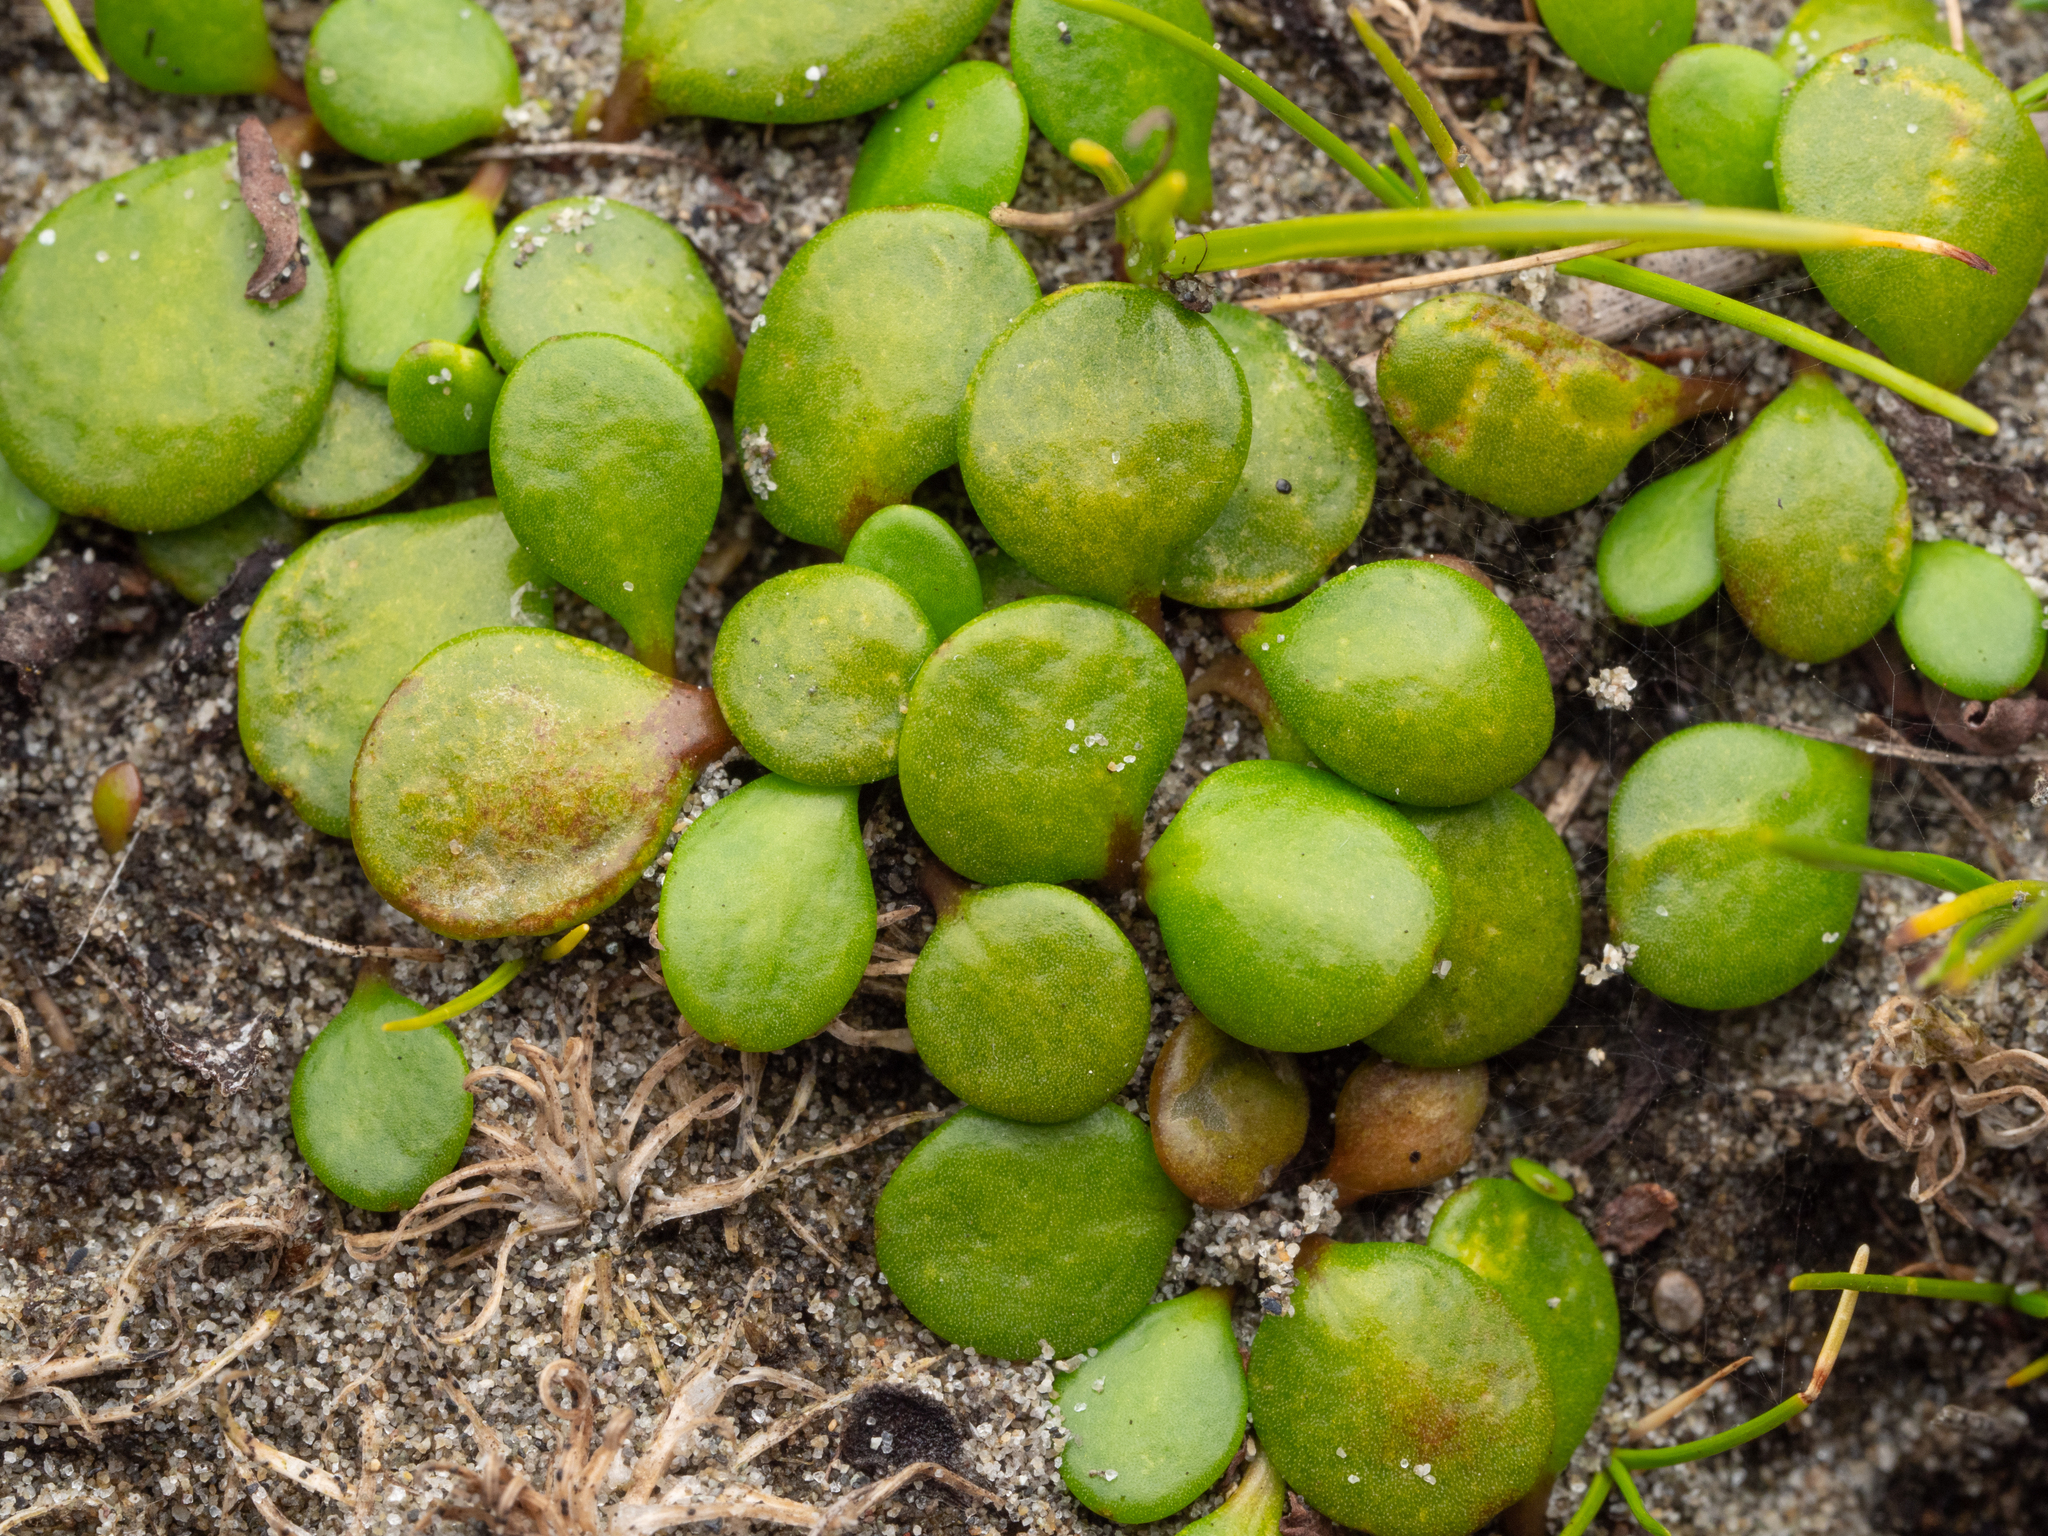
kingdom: Plantae
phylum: Tracheophyta
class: Magnoliopsida
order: Asterales
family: Goodeniaceae
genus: Goodenia
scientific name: Goodenia heenanii
